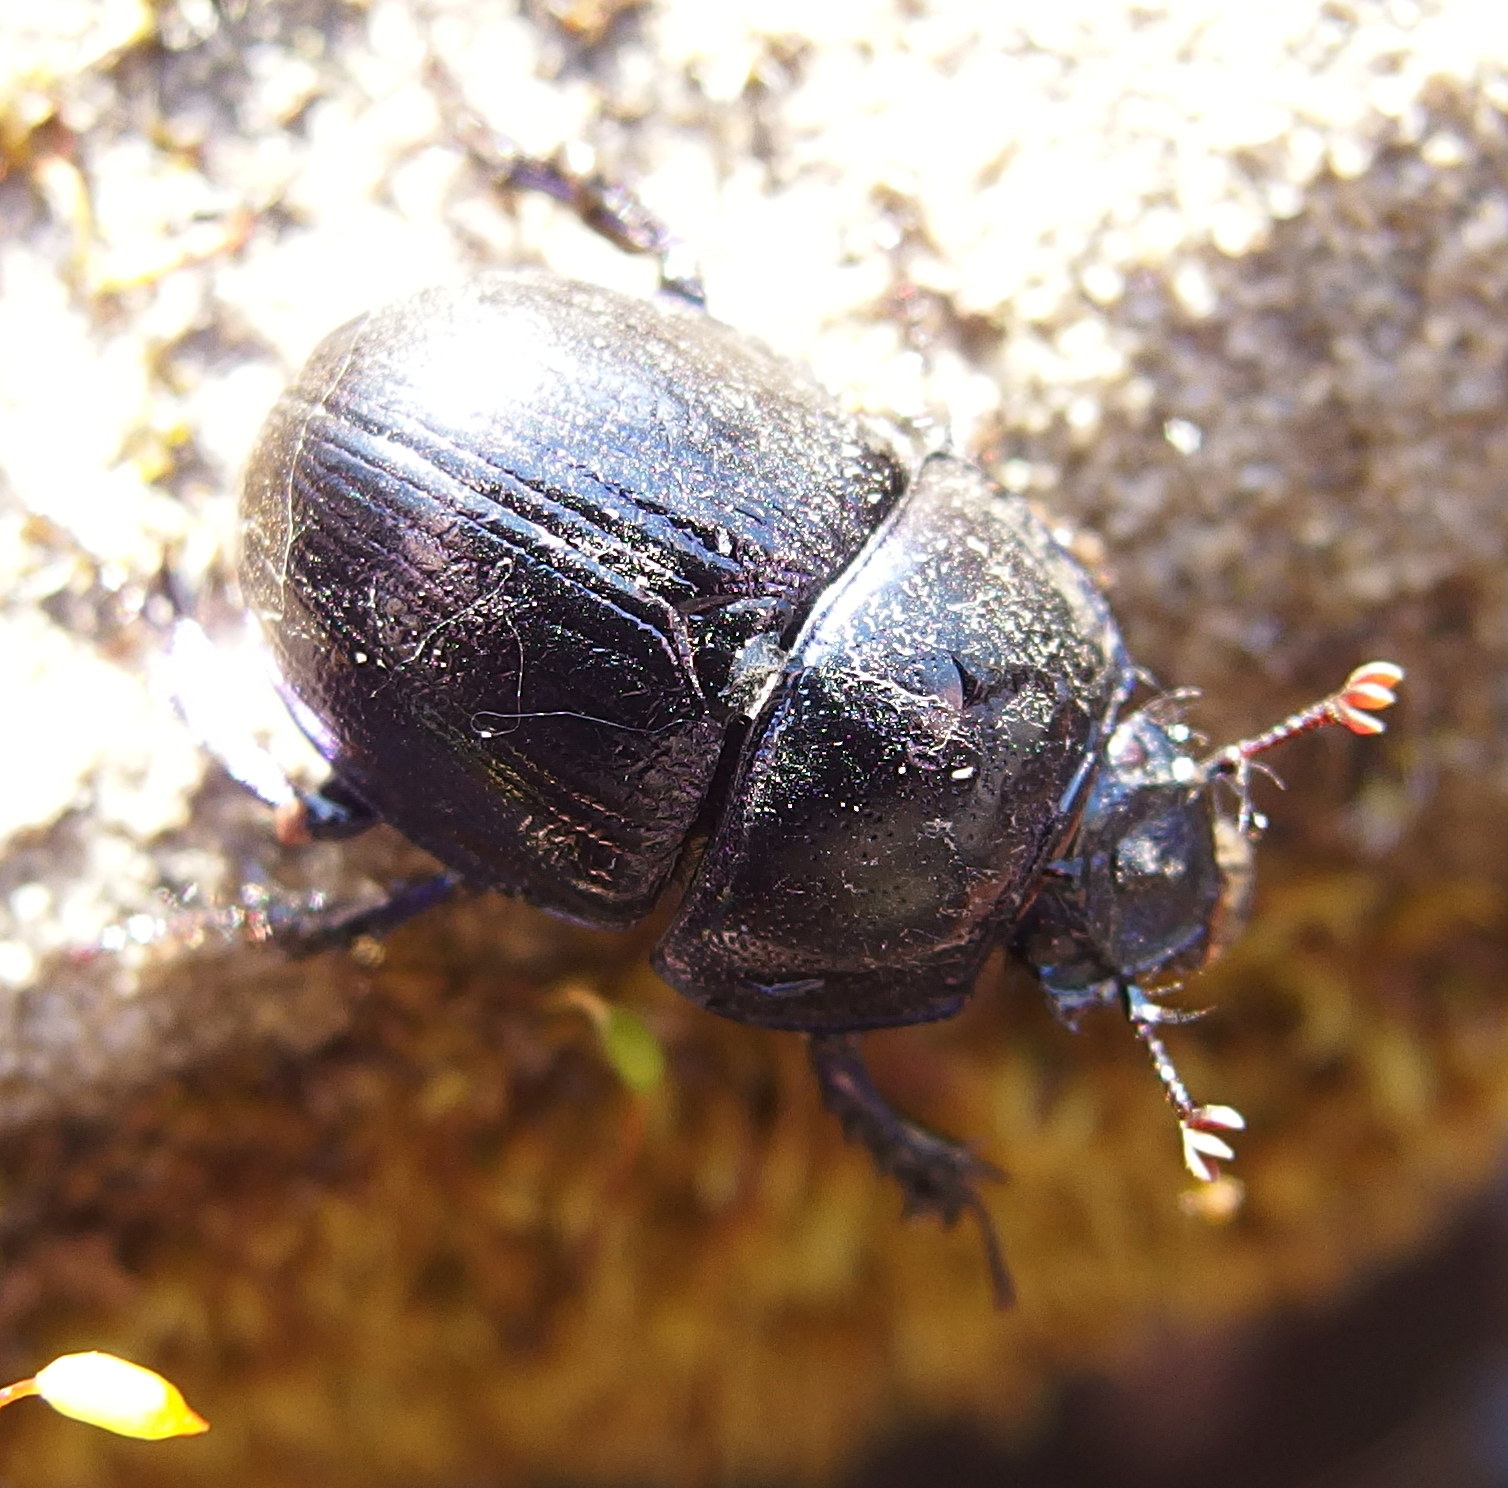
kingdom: Animalia
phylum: Arthropoda
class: Insecta
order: Coleoptera
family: Geotrupidae
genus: Anoplotrupes
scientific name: Anoplotrupes stercorosus
